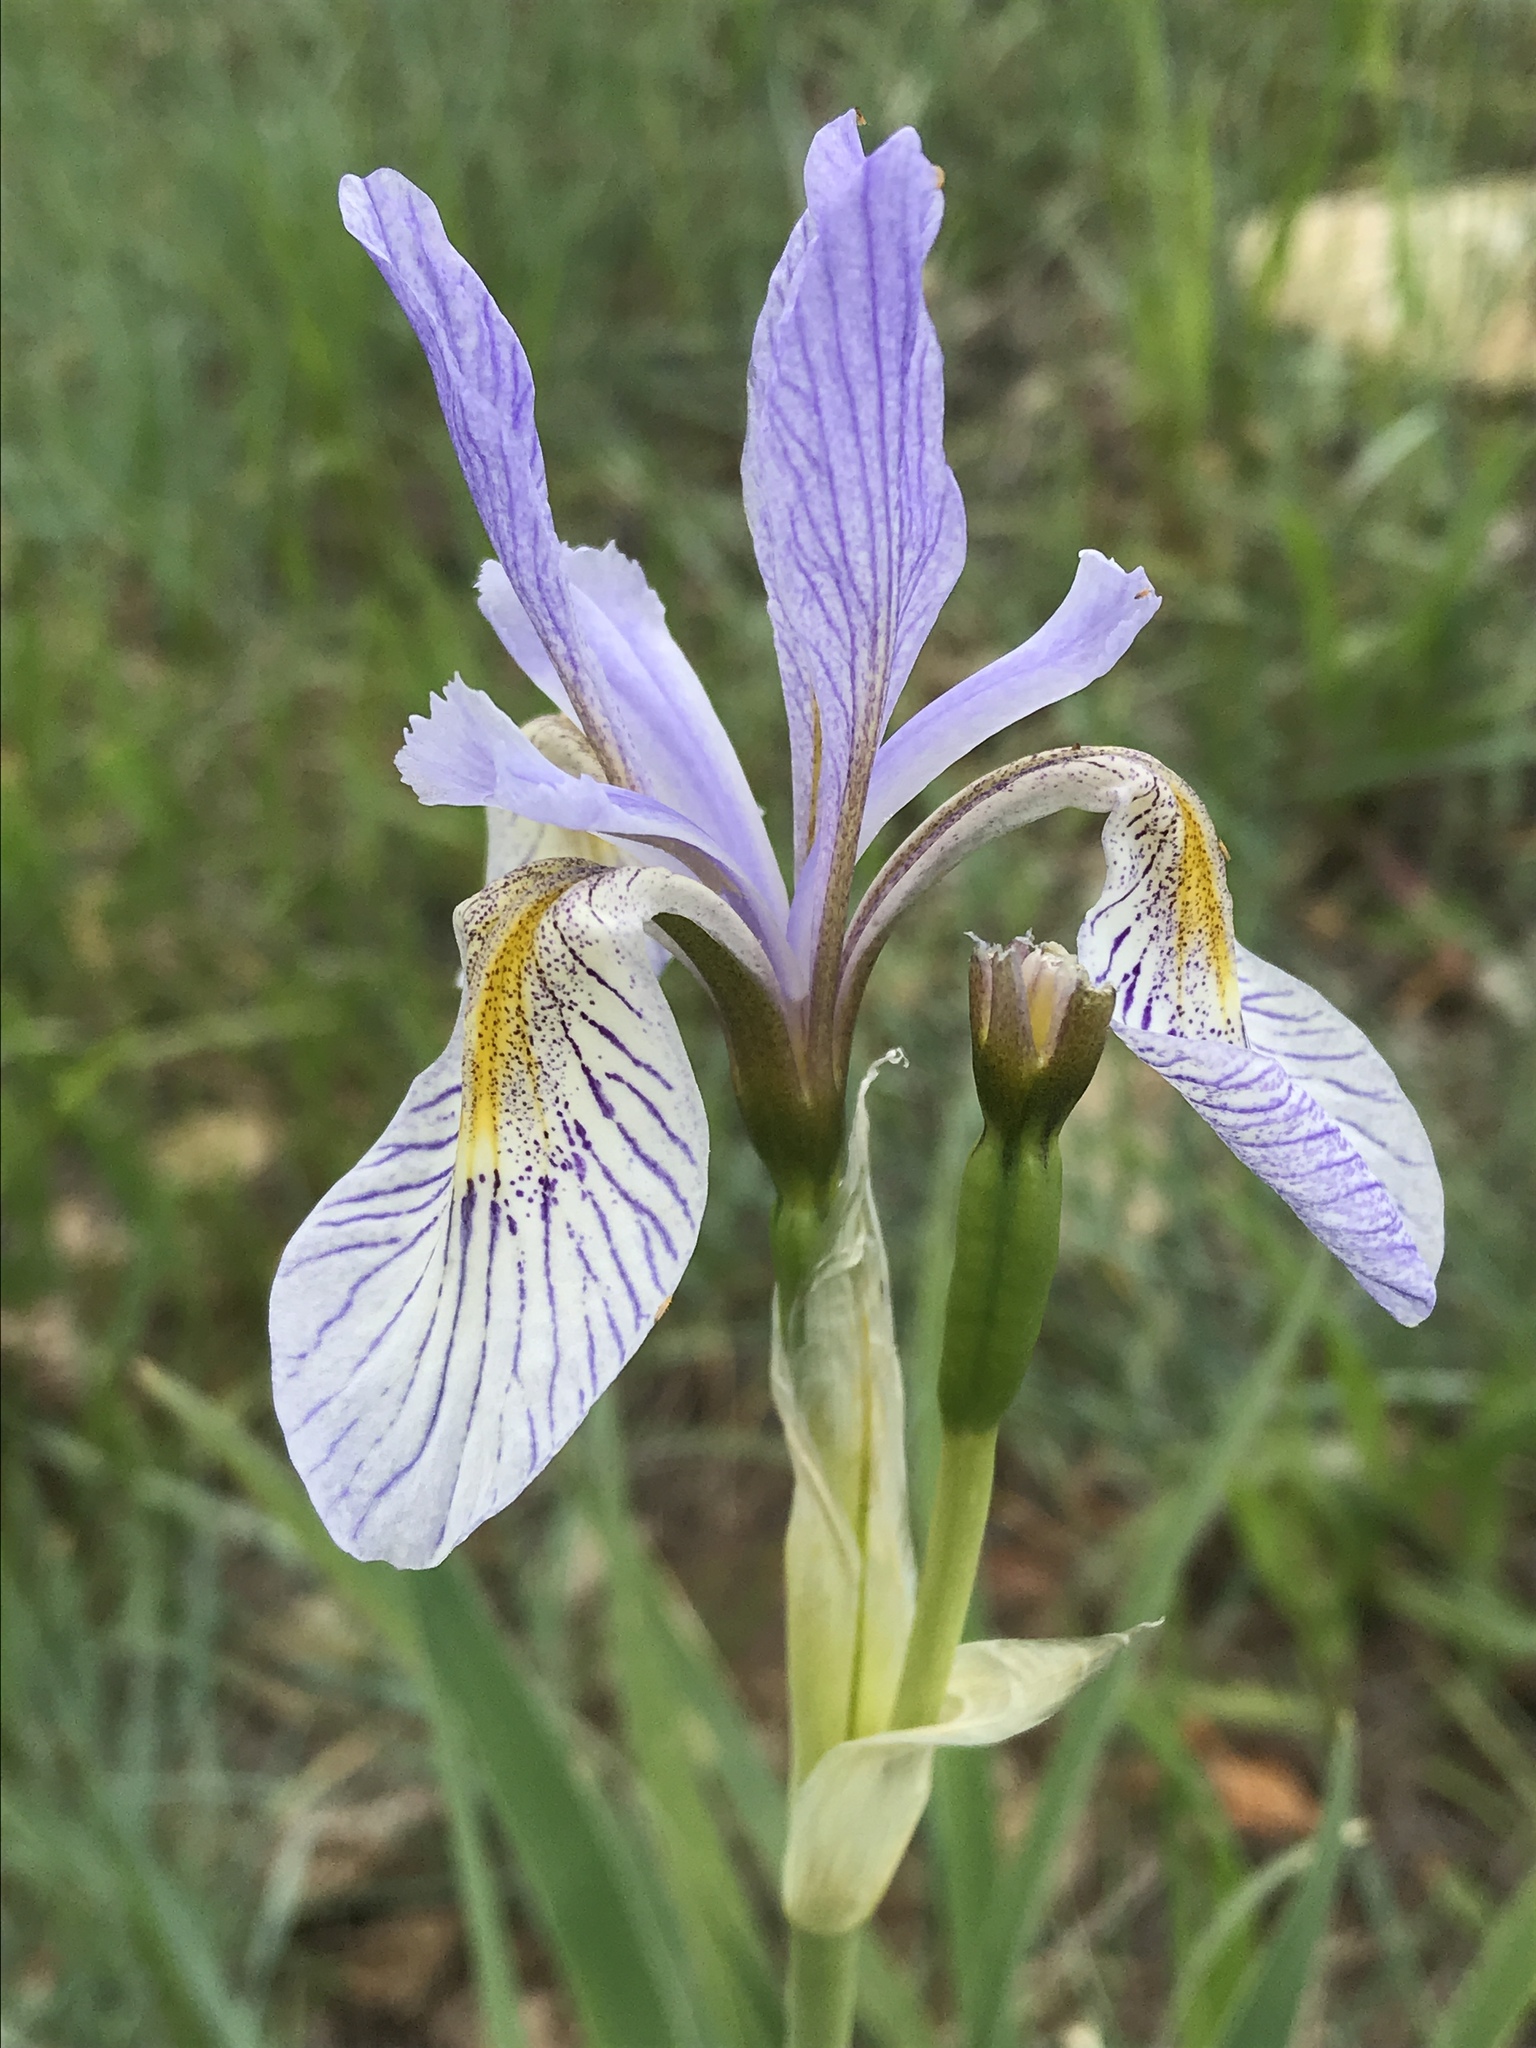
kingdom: Plantae
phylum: Tracheophyta
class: Liliopsida
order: Asparagales
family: Iridaceae
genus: Iris
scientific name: Iris missouriensis
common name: Rocky mountain iris
